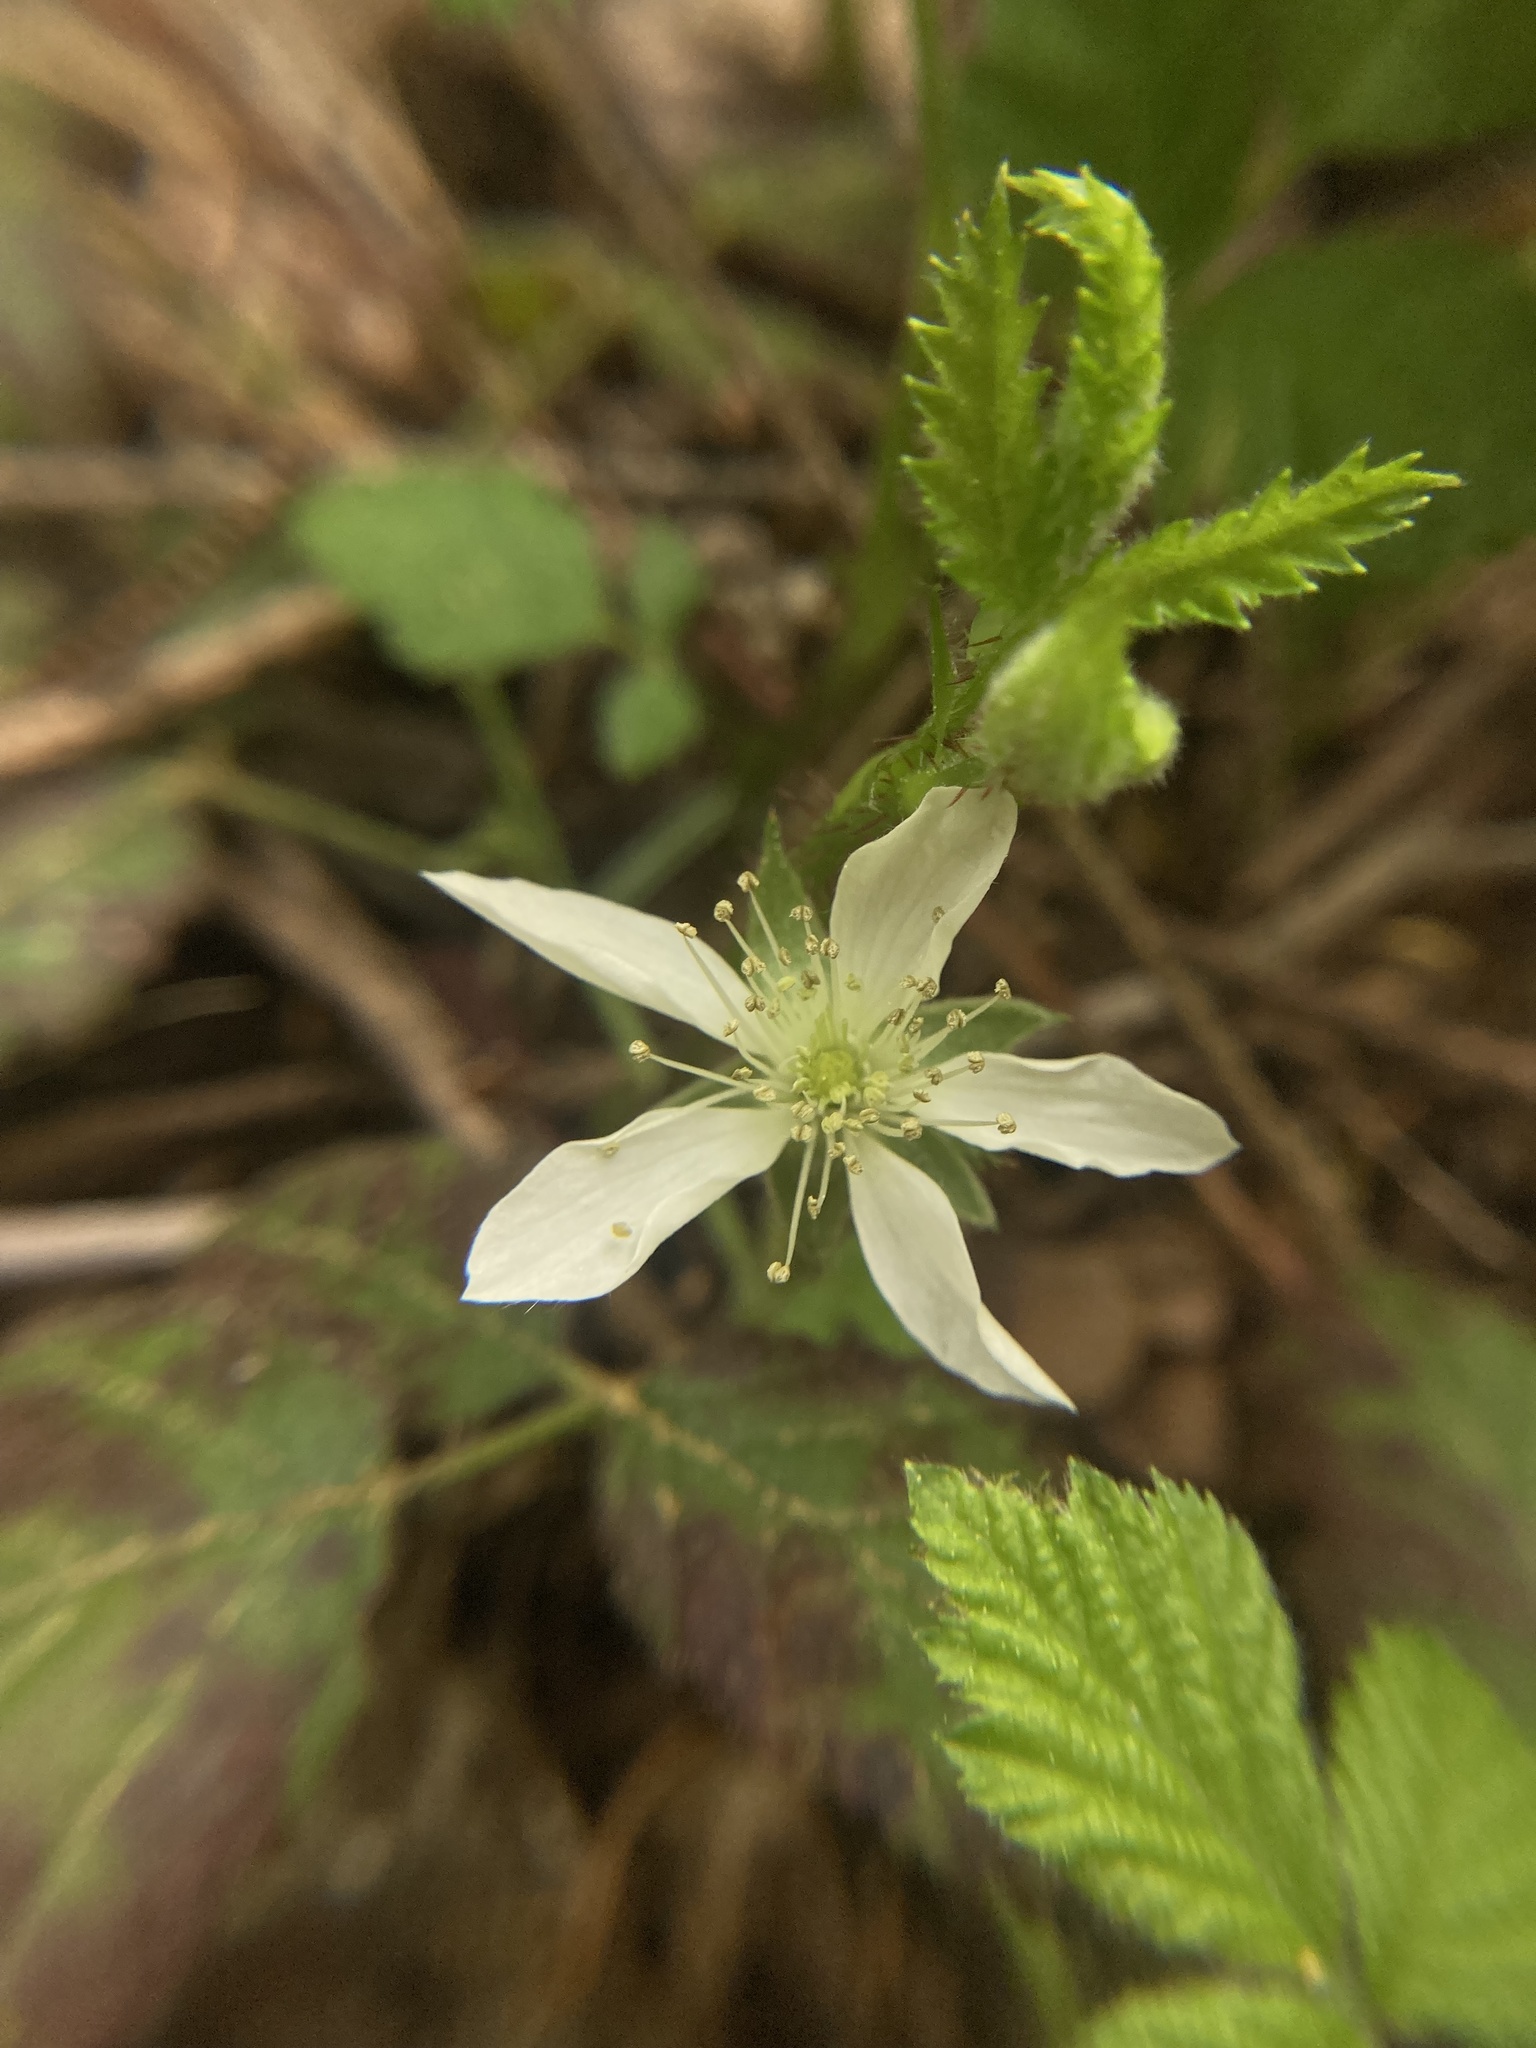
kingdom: Plantae
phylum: Tracheophyta
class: Magnoliopsida
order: Rosales
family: Rosaceae
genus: Rubus
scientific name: Rubus ursinus
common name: Pacific blackberry
